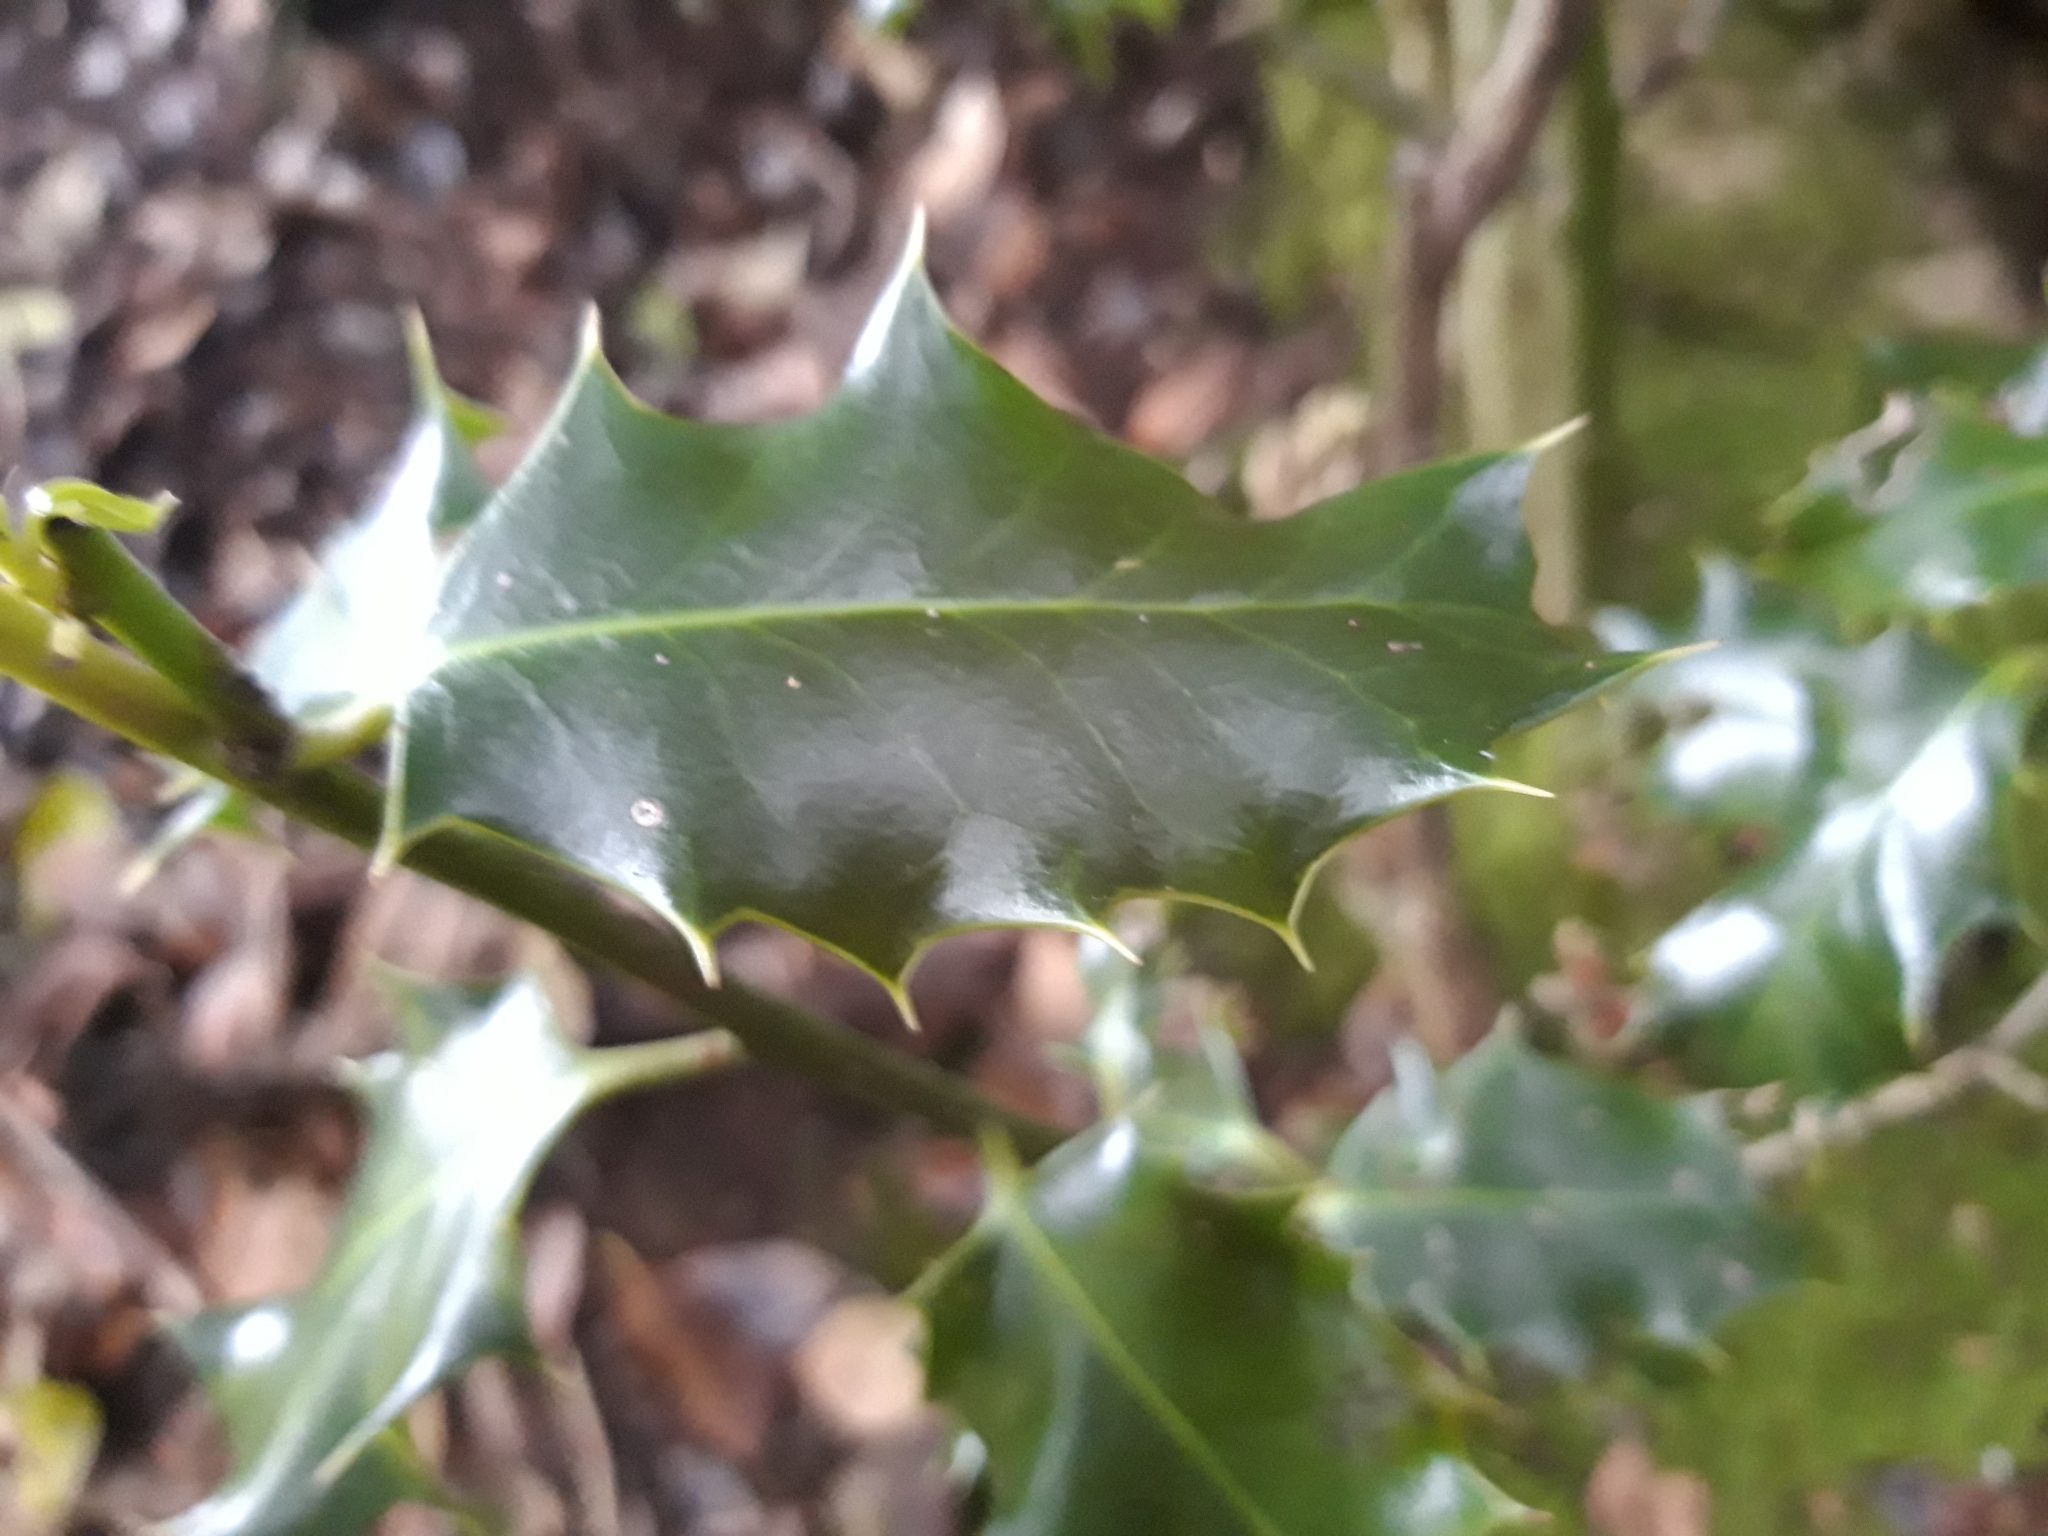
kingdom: Plantae
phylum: Tracheophyta
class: Magnoliopsida
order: Aquifoliales
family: Aquifoliaceae
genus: Ilex
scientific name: Ilex aquifolium
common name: English holly
